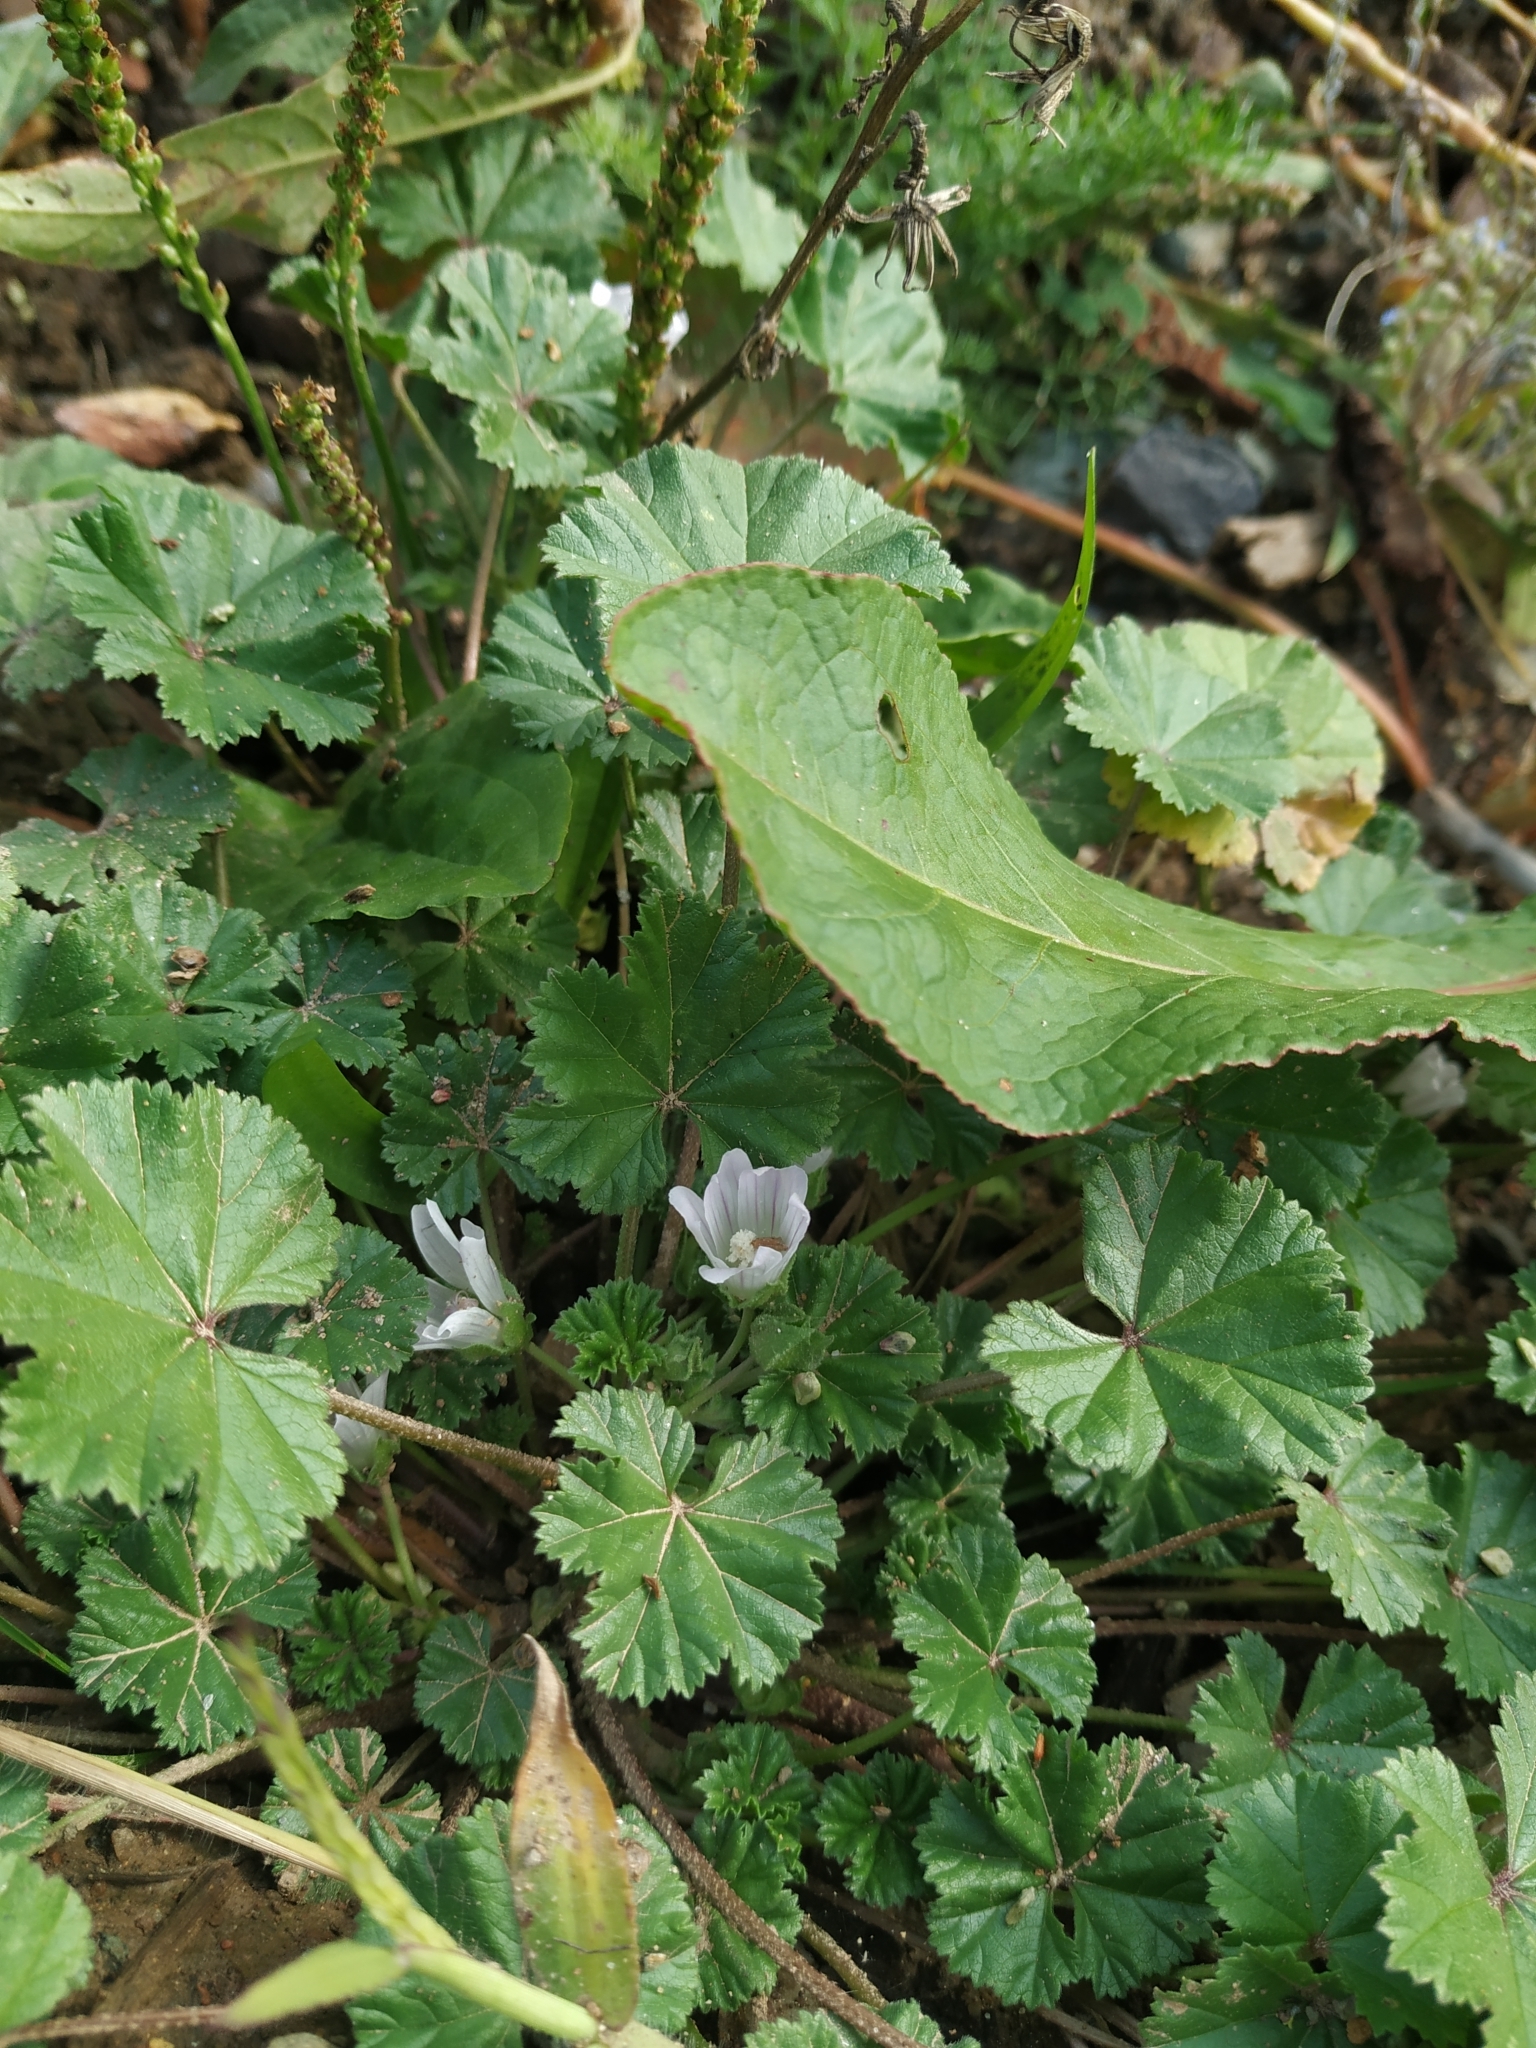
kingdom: Plantae
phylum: Tracheophyta
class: Magnoliopsida
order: Malvales
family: Malvaceae
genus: Malva
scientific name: Malva neglecta
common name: Common mallow
